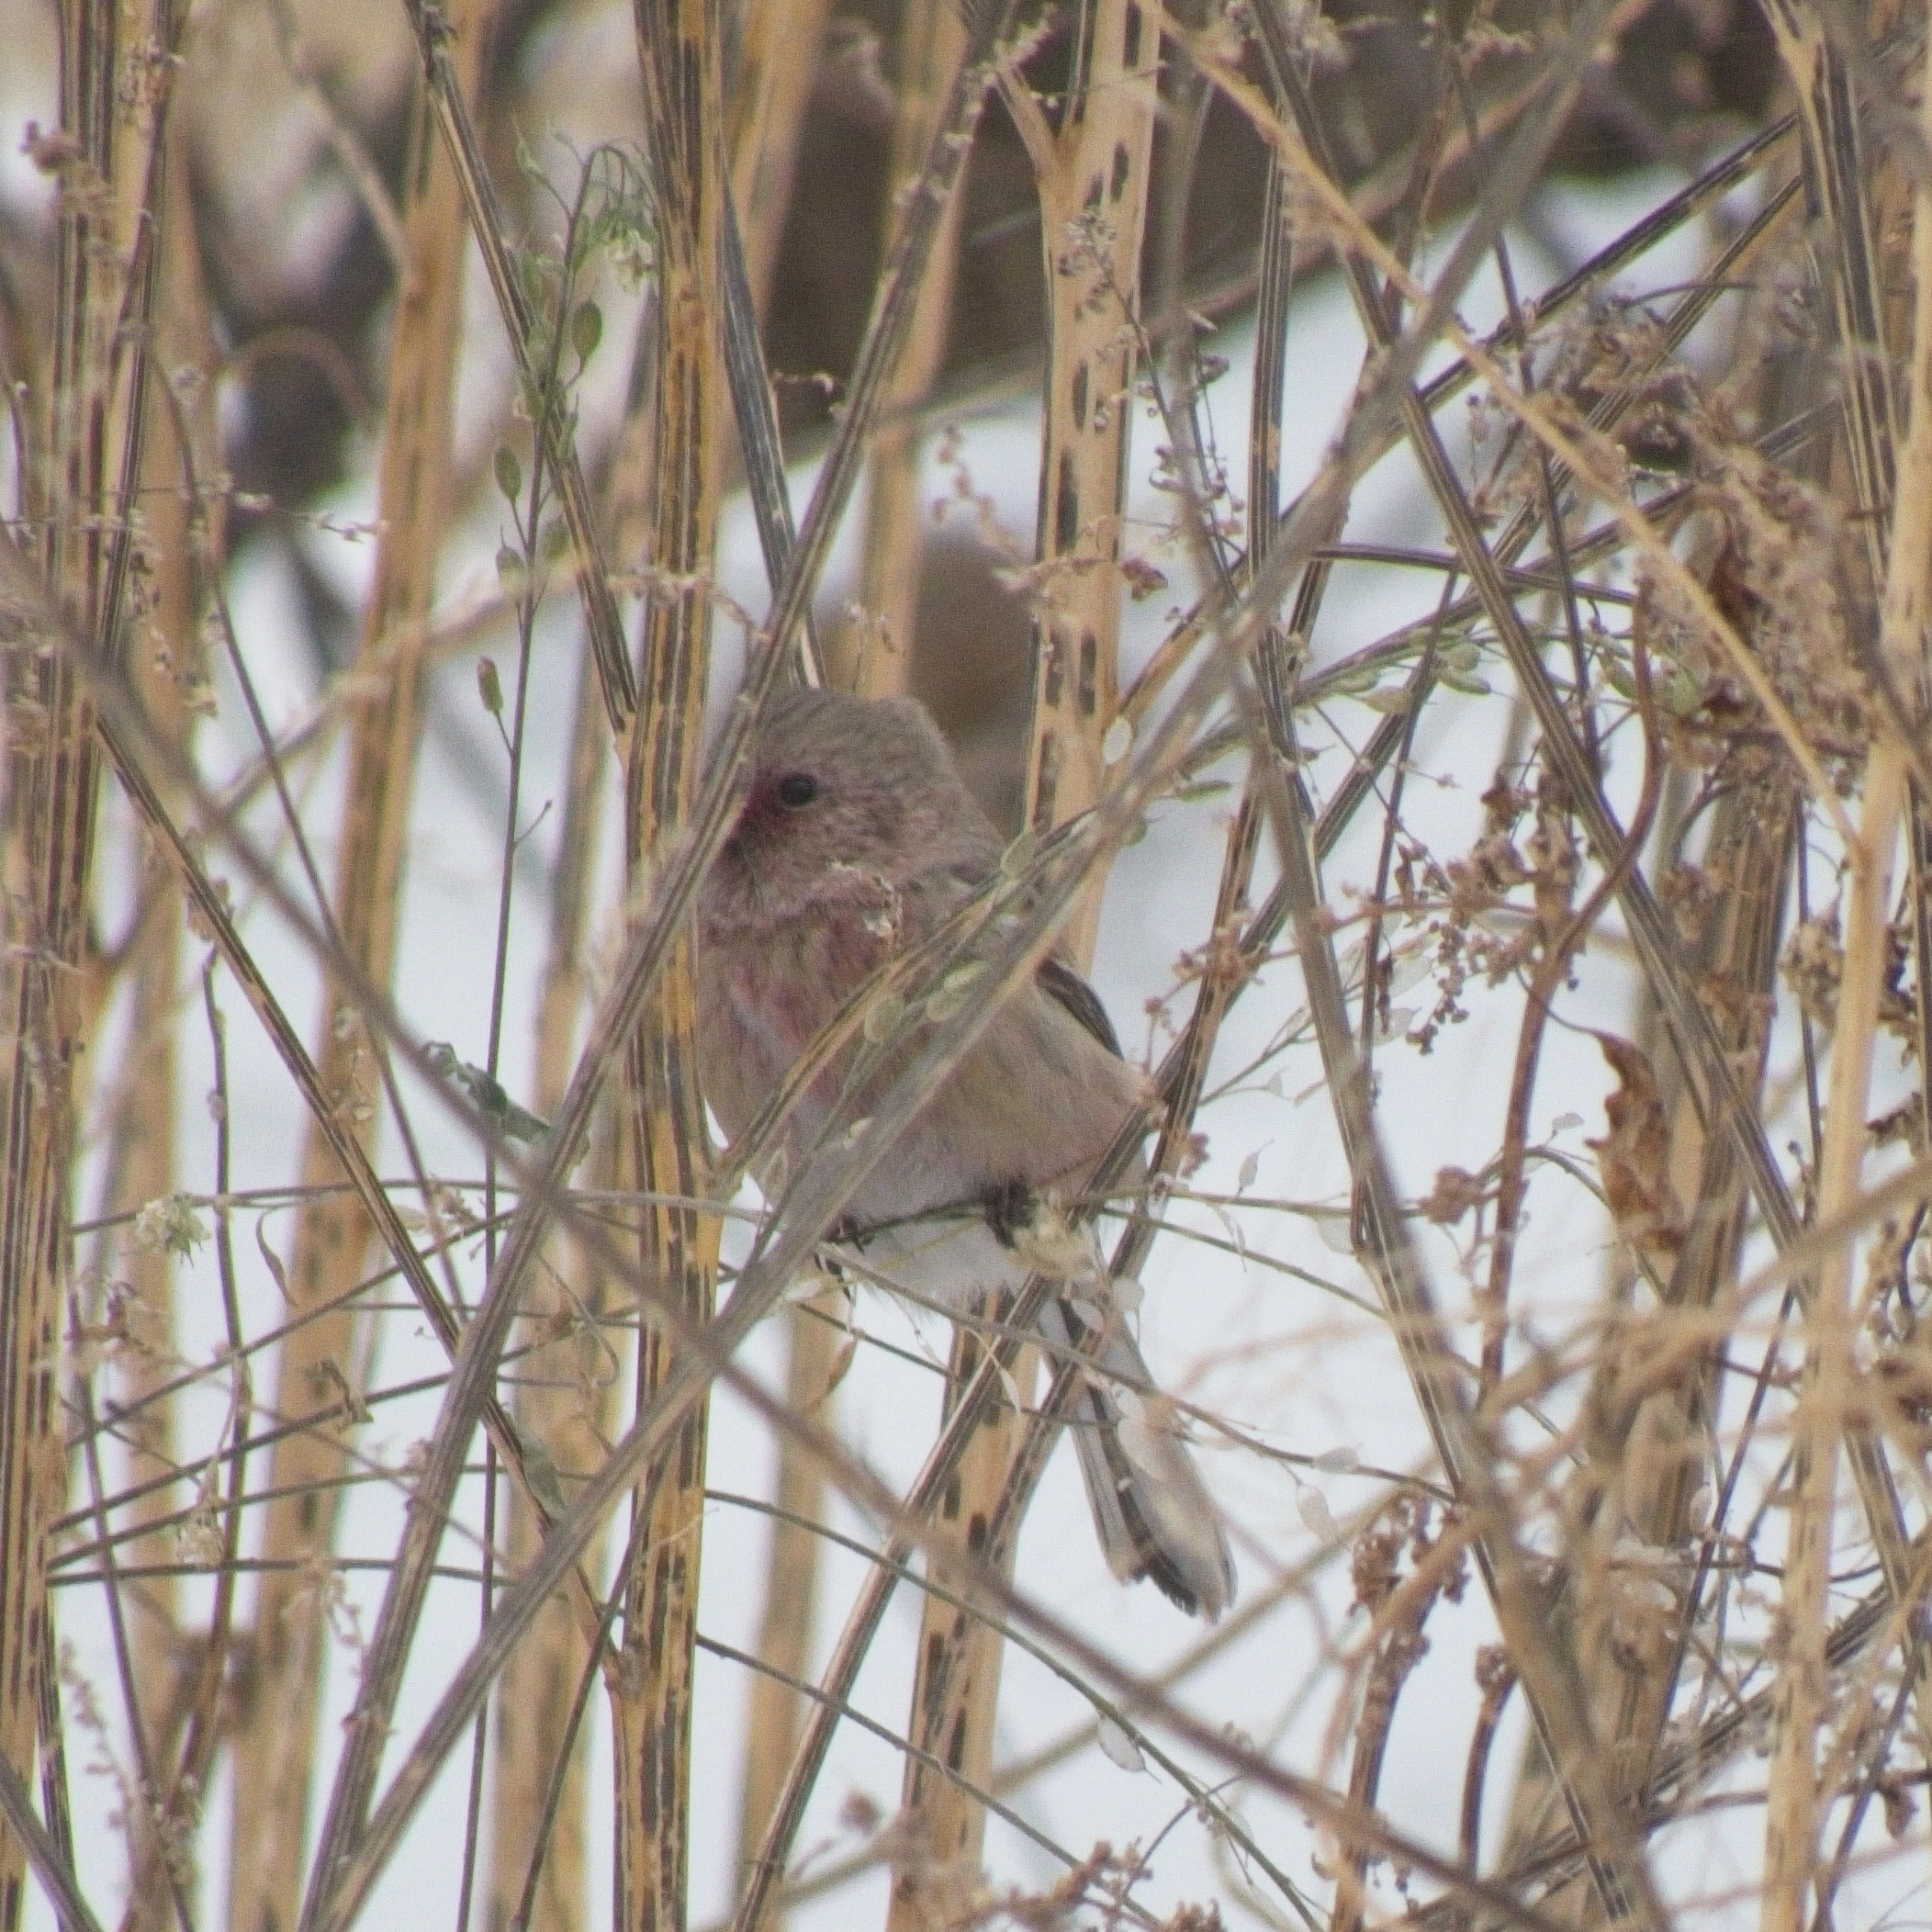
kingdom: Animalia
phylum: Chordata
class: Aves
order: Passeriformes
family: Fringillidae
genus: Carpodacus
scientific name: Carpodacus sibiricus
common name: Long-tailed rosefinch
